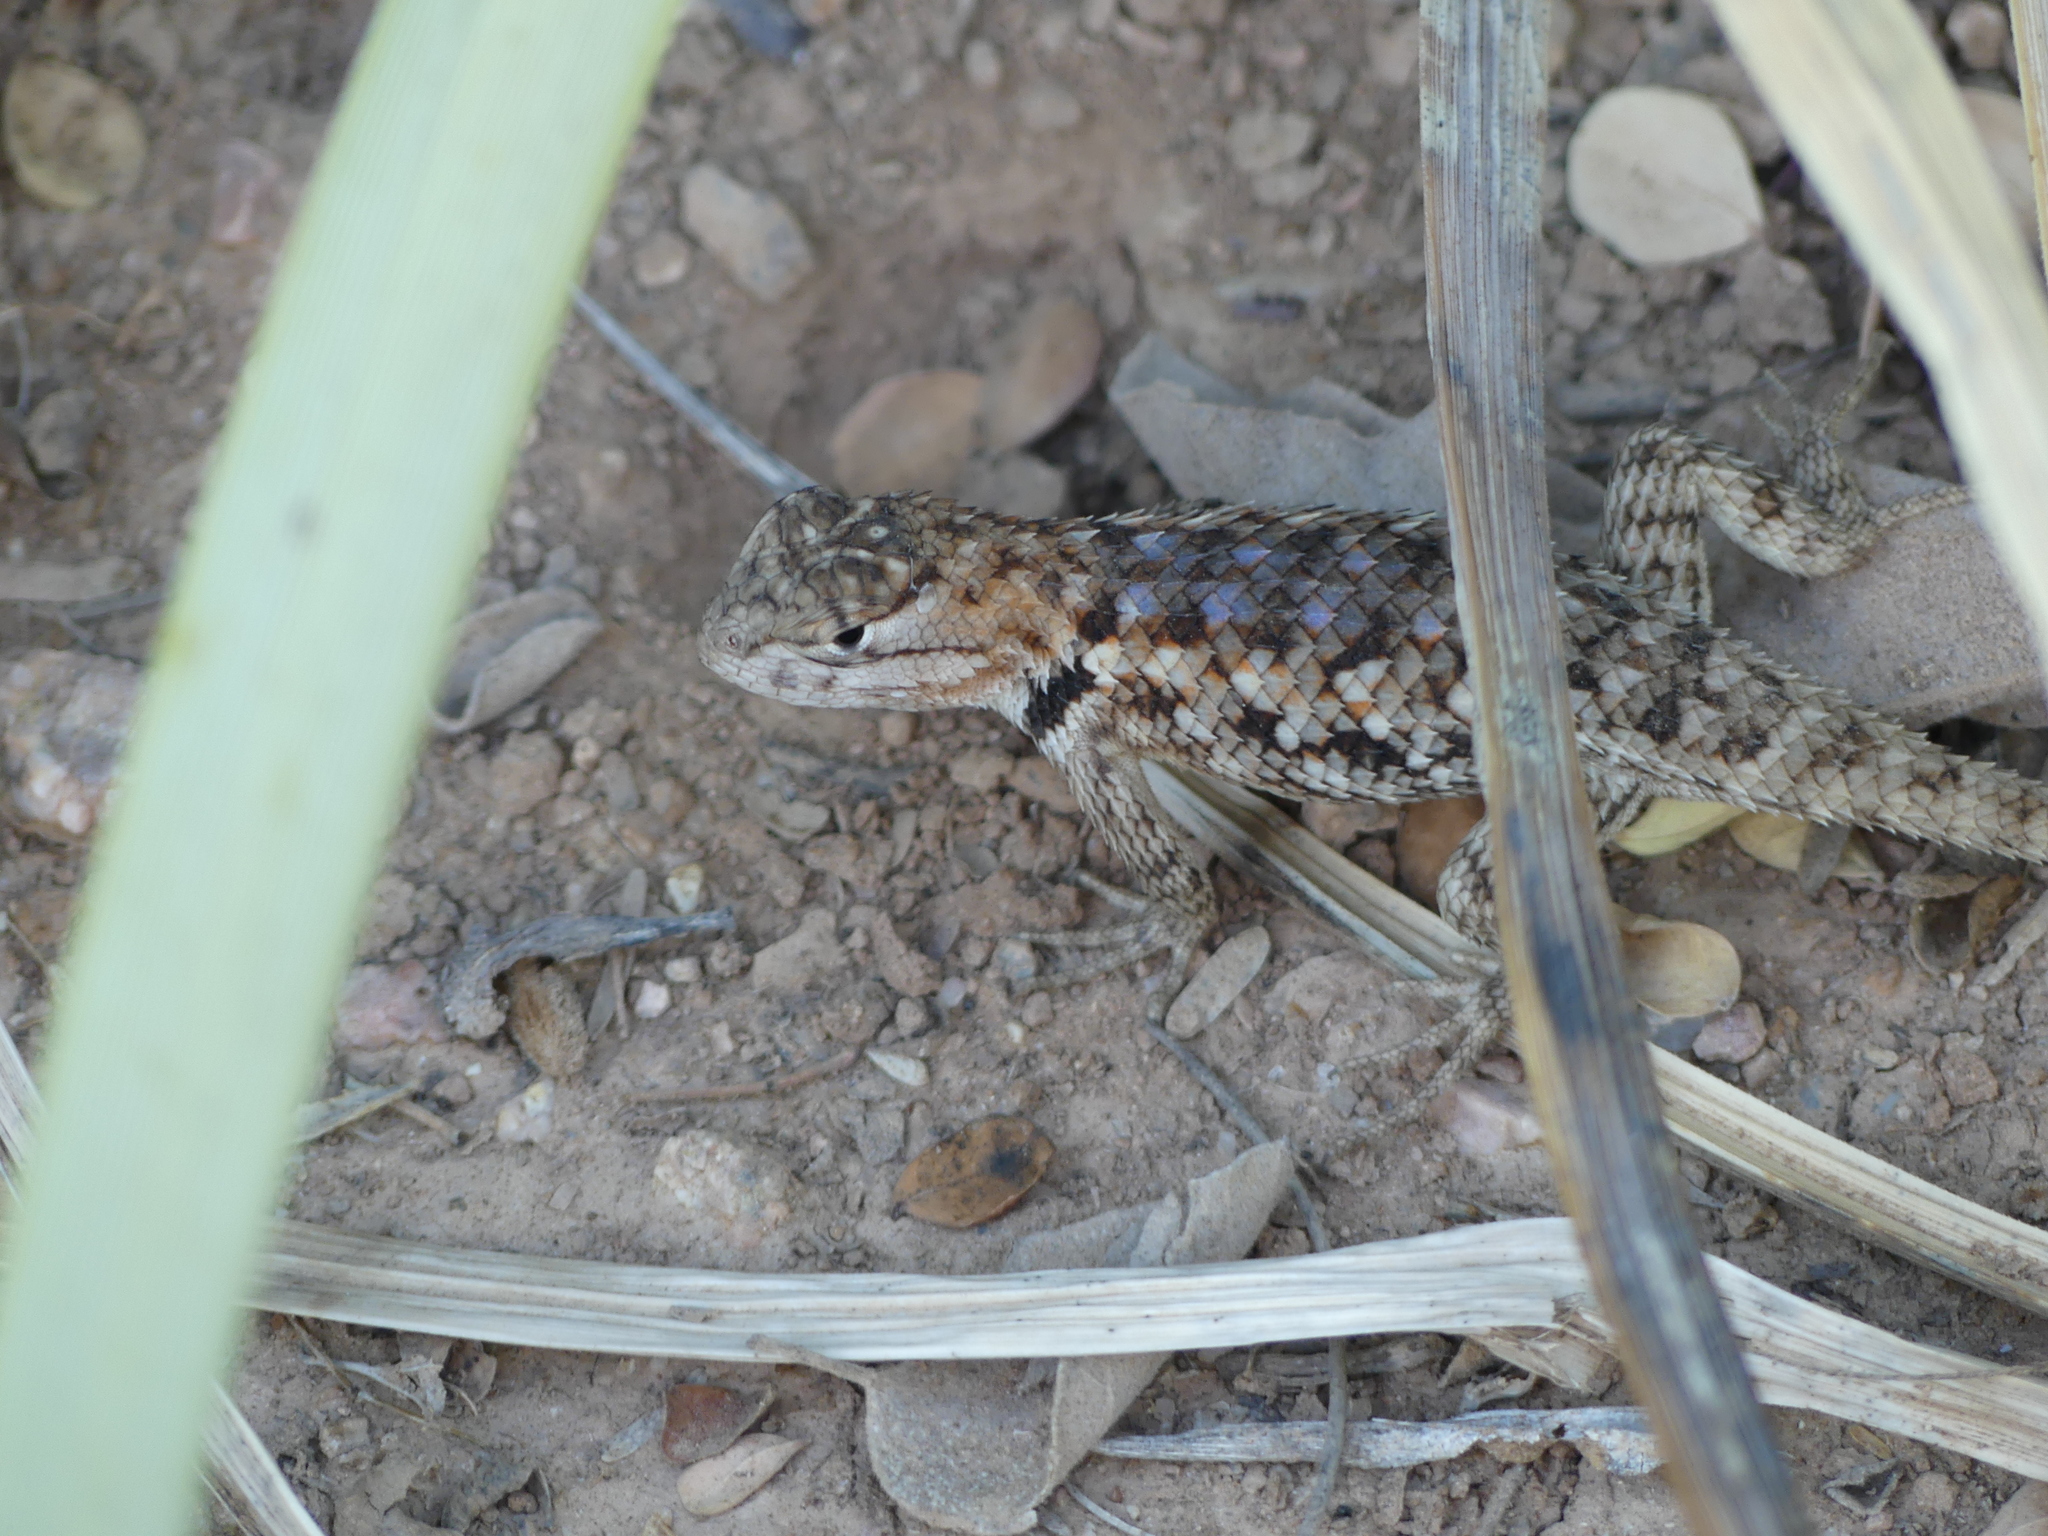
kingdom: Animalia
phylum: Chordata
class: Squamata
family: Phrynosomatidae
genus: Sceloporus
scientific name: Sceloporus magister
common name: Desert spiny lizard
